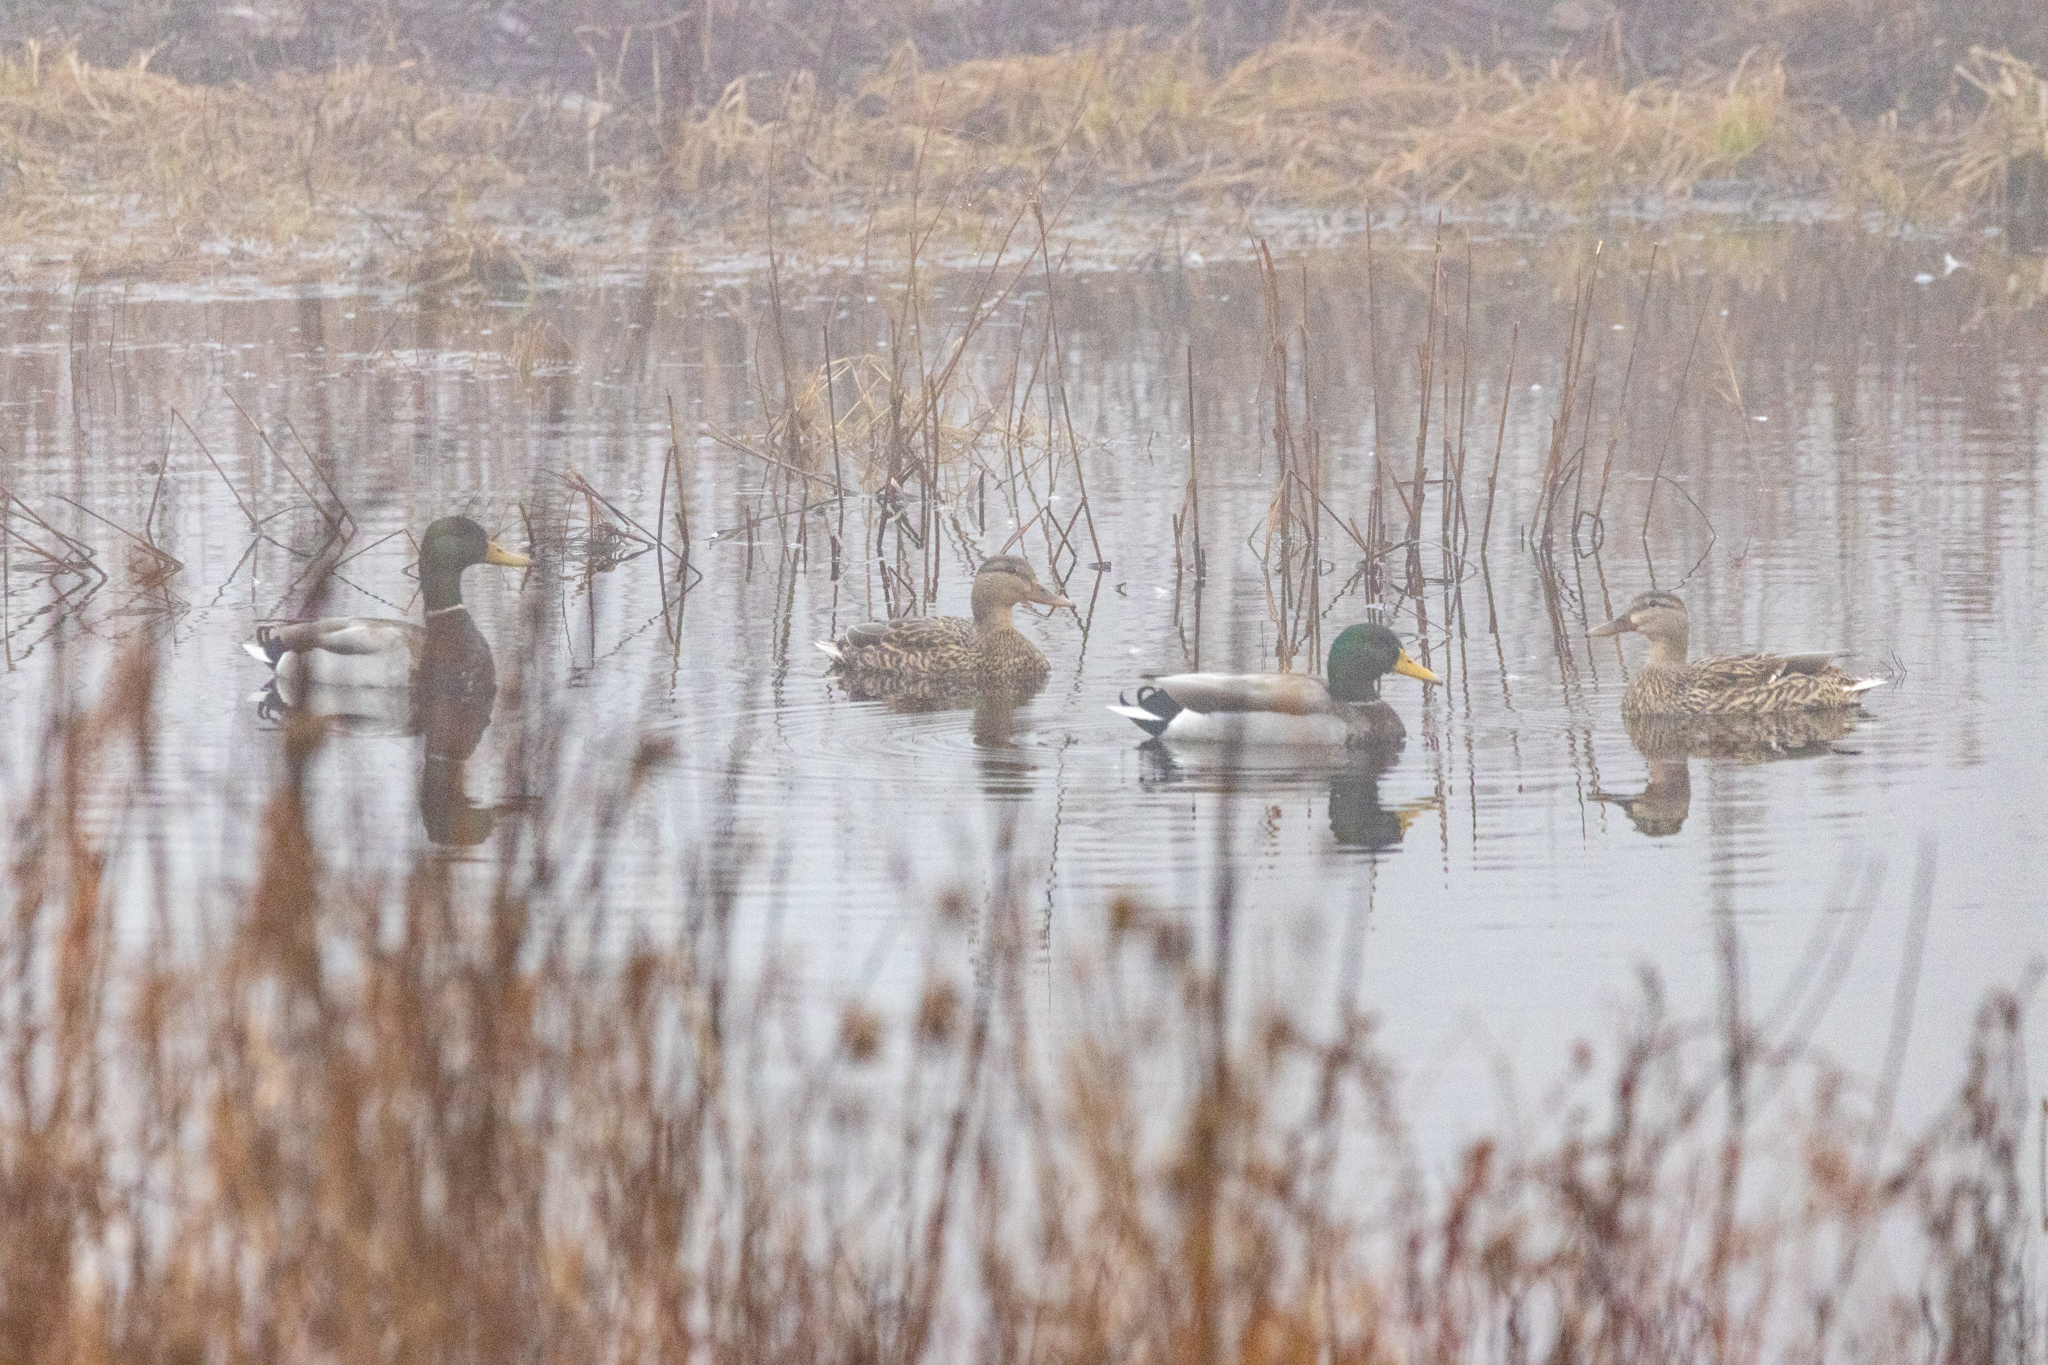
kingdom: Animalia
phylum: Chordata
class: Aves
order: Anseriformes
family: Anatidae
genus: Anas
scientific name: Anas platyrhynchos
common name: Mallard
